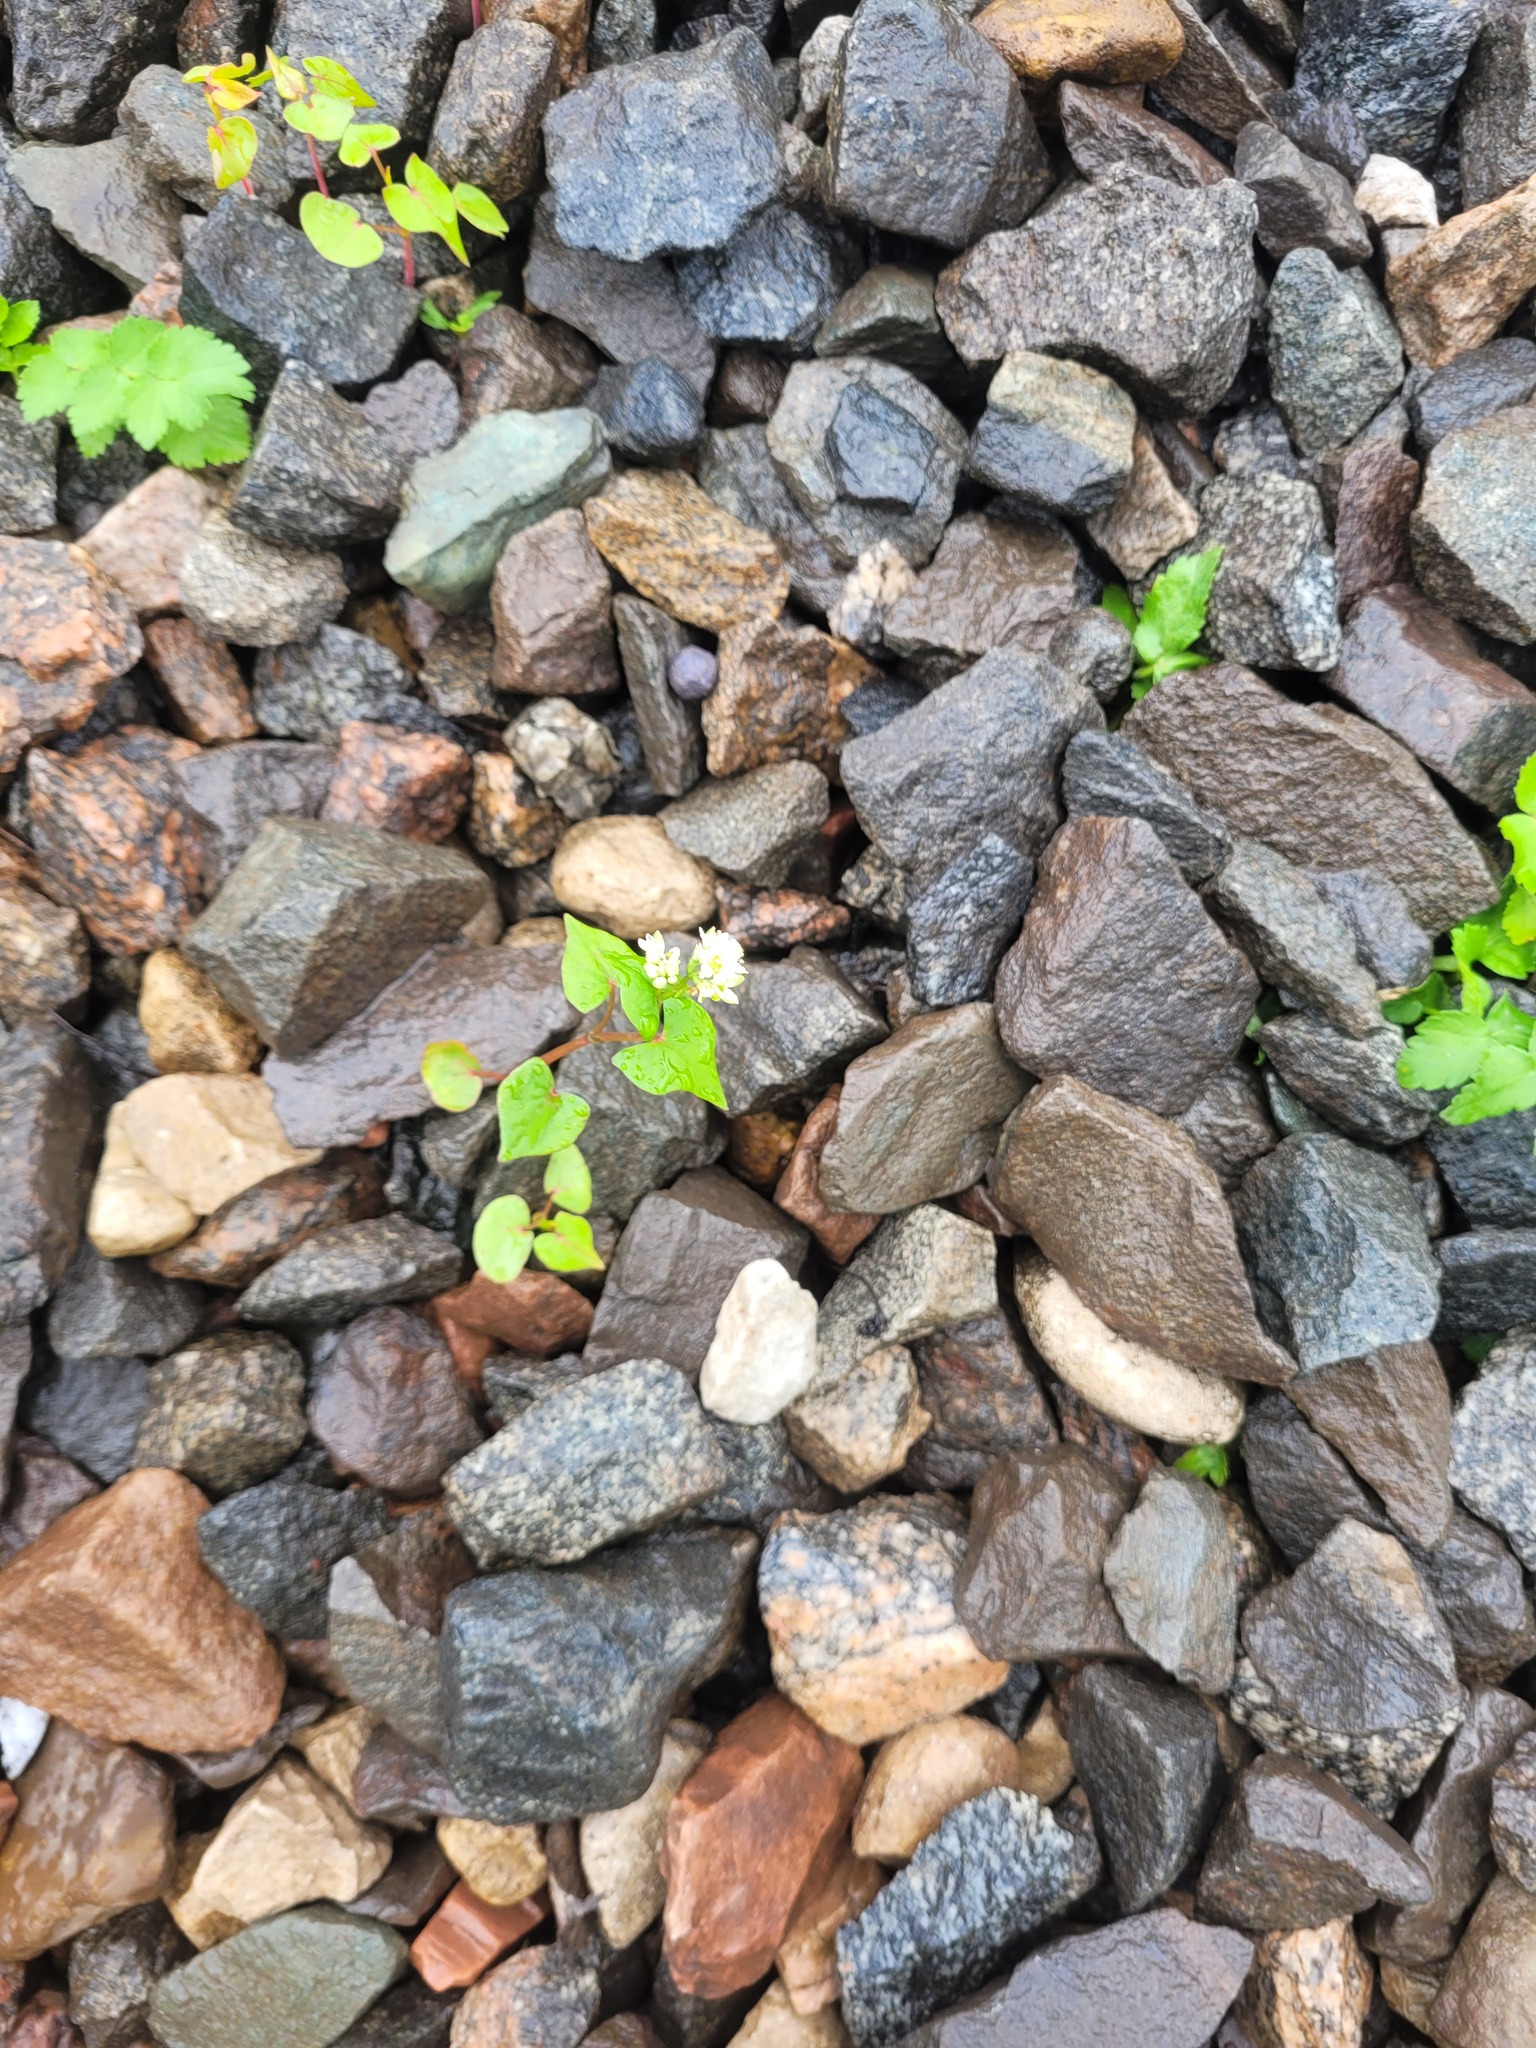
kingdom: Plantae
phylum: Tracheophyta
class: Magnoliopsida
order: Caryophyllales
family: Polygonaceae
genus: Fagopyrum
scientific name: Fagopyrum esculentum
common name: Buckwheat
